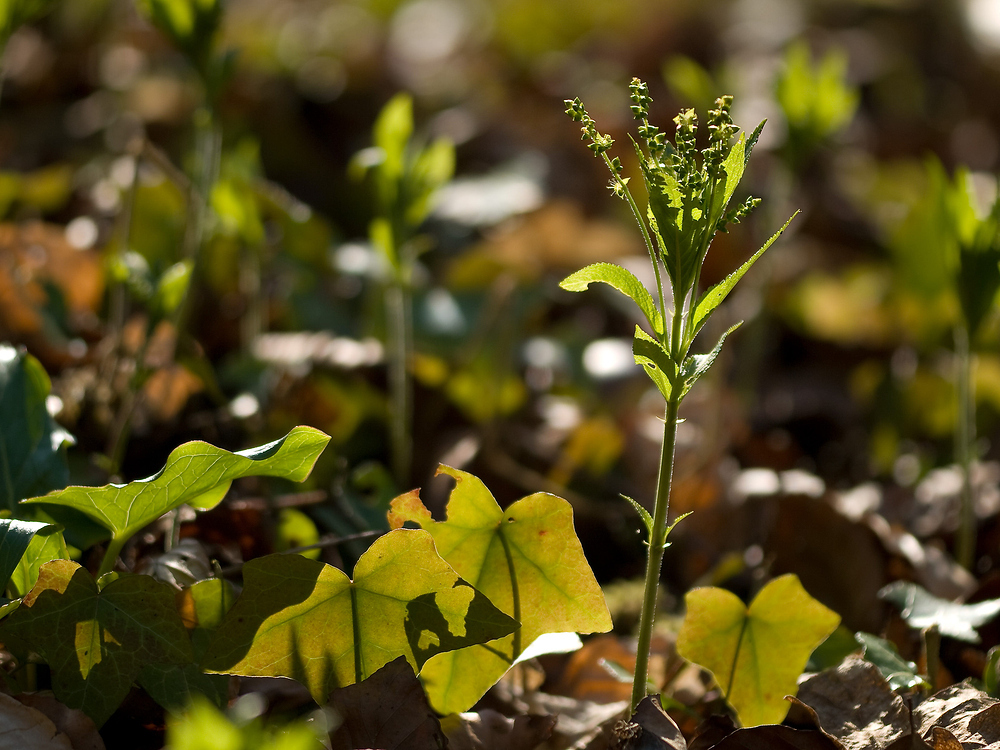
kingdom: Plantae
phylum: Tracheophyta
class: Magnoliopsida
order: Malpighiales
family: Euphorbiaceae
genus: Mercurialis
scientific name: Mercurialis perennis
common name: Dog mercury
